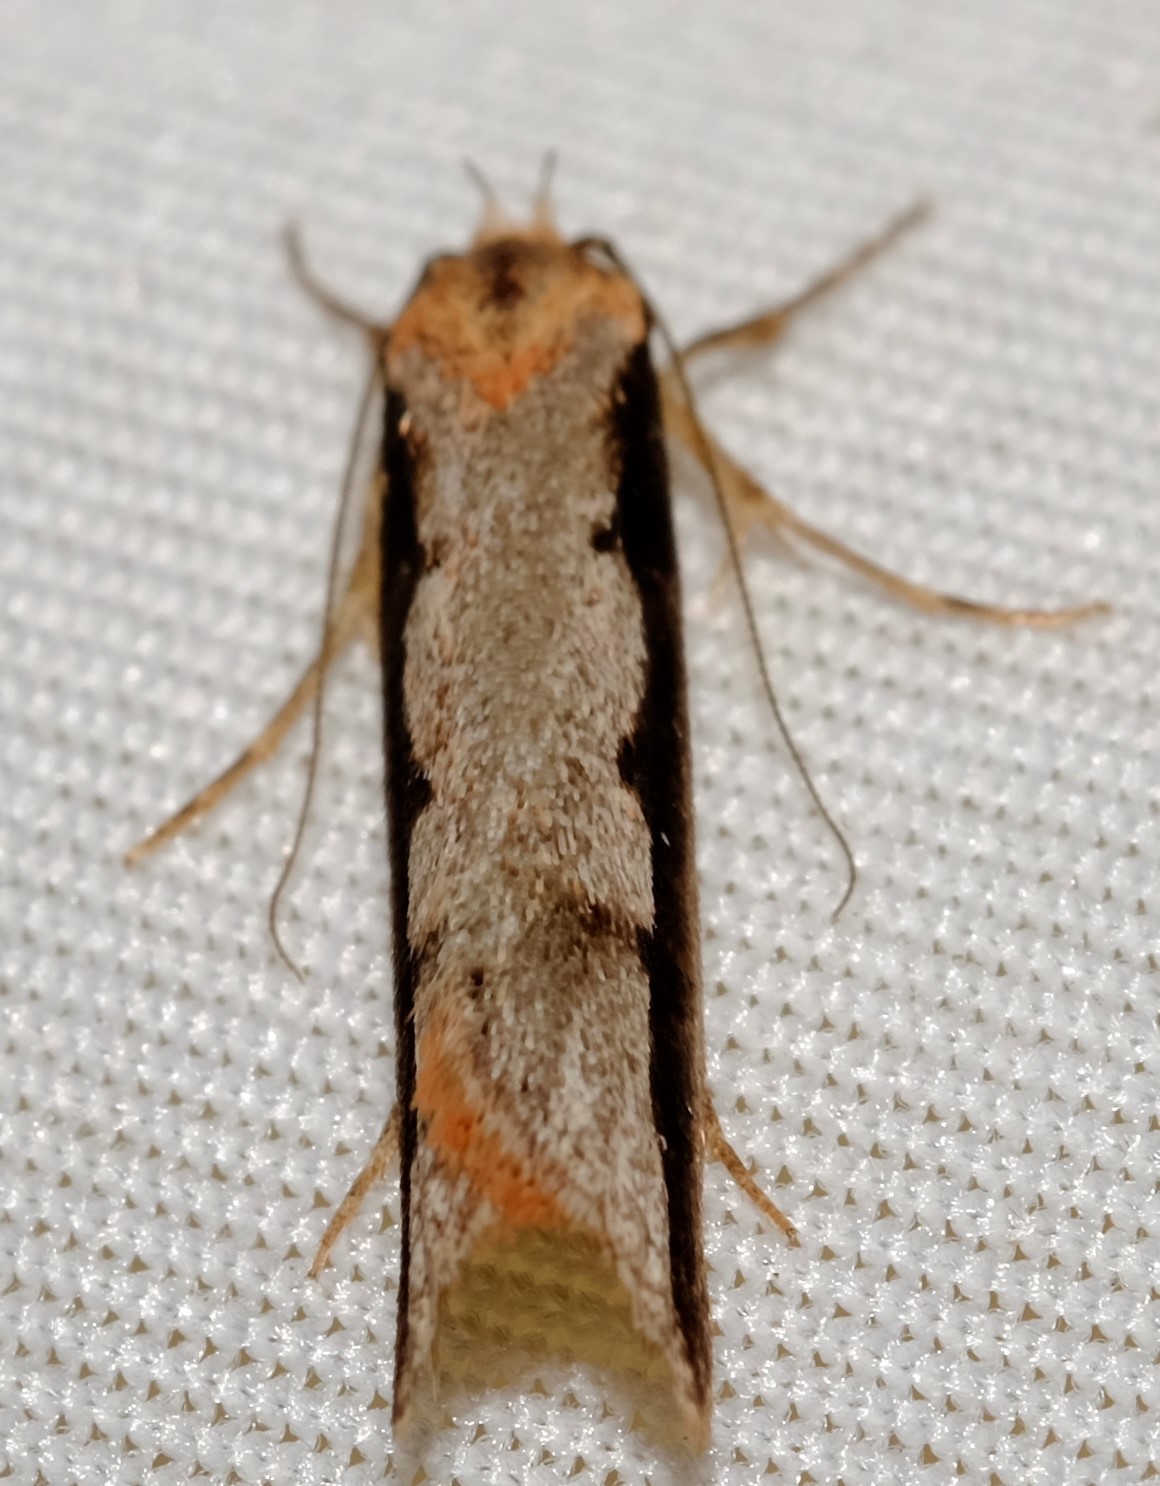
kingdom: Animalia
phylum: Arthropoda
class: Insecta
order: Lepidoptera
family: Oecophoridae
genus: Leptocroca
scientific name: Leptocroca sanguinolenta
